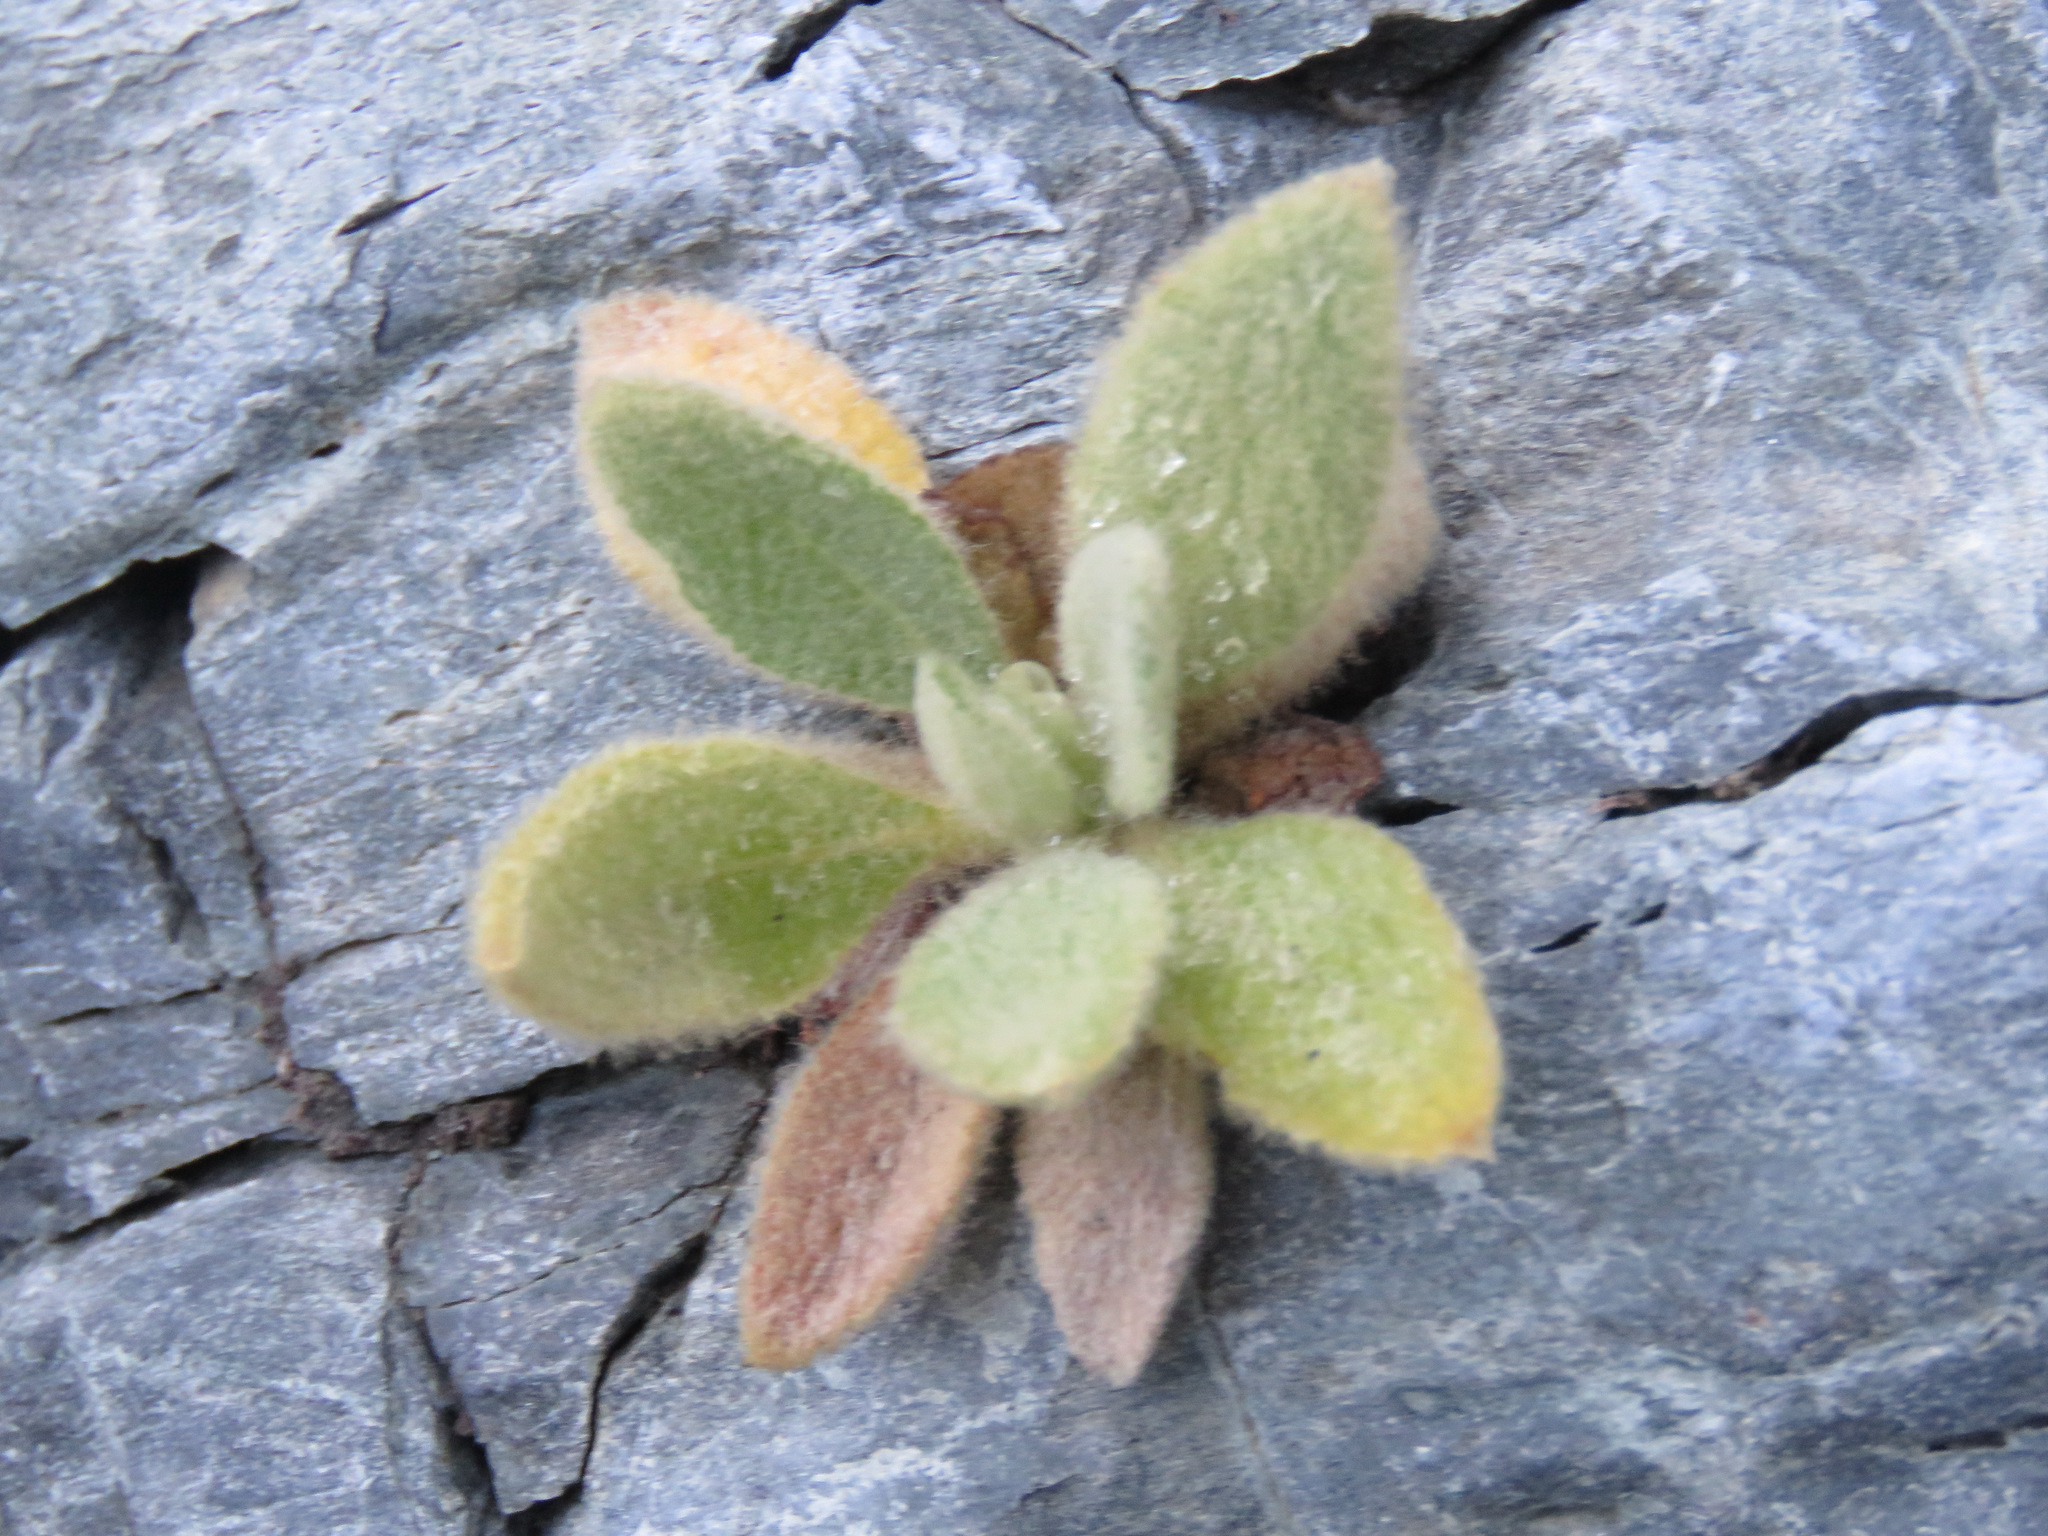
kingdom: Plantae
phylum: Tracheophyta
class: Magnoliopsida
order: Lamiales
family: Scrophulariaceae
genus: Verbascum
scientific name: Verbascum thapsus
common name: Common mullein
